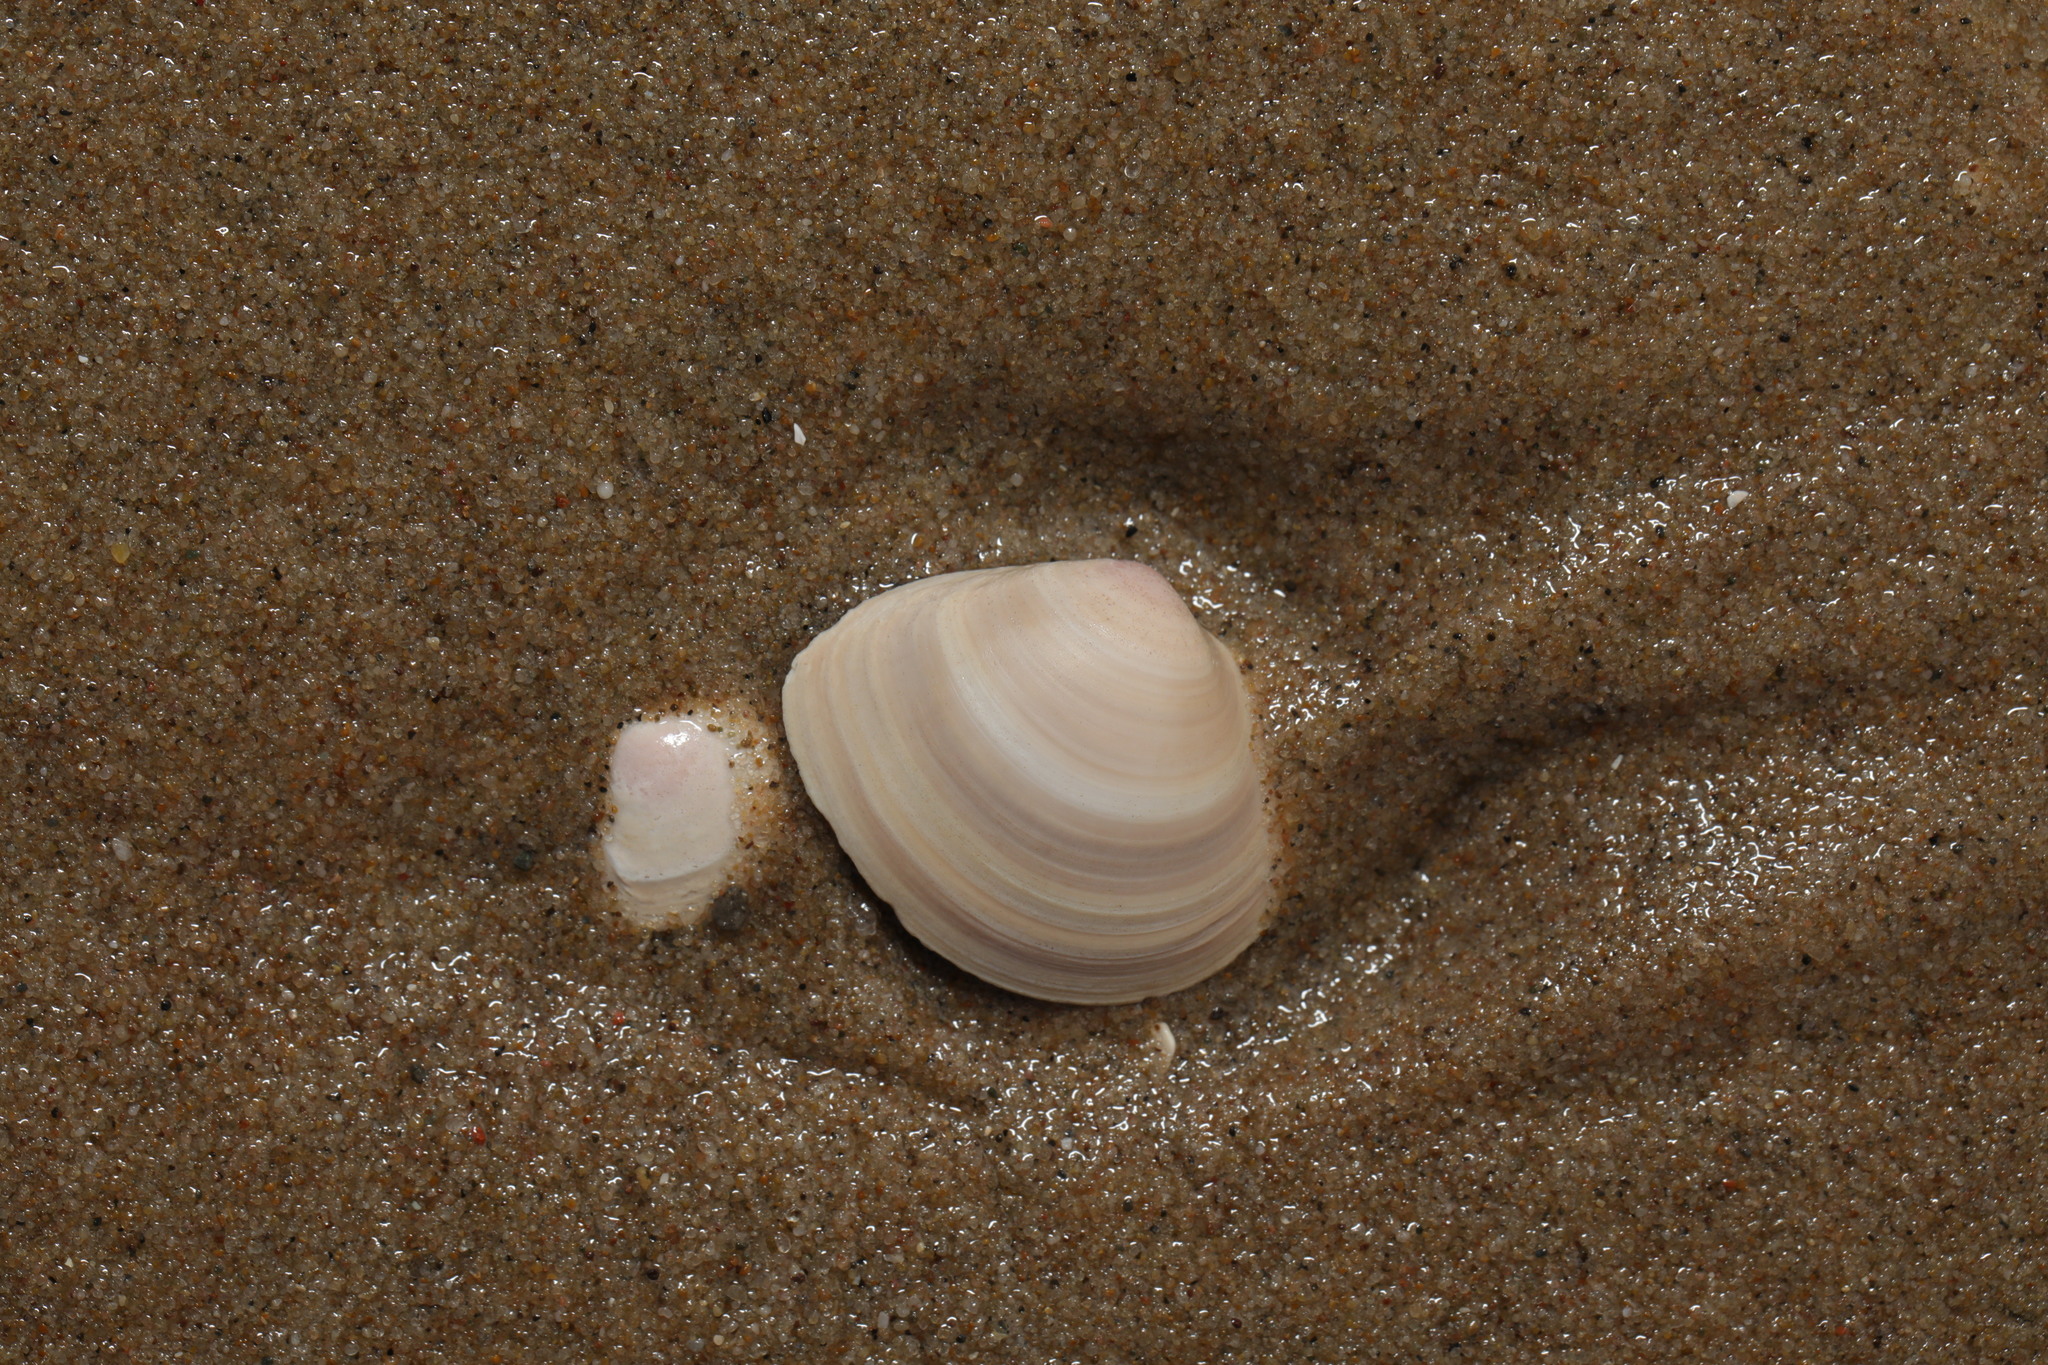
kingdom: Animalia
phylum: Mollusca
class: Bivalvia
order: Cardiida
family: Tellinidae
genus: Macoma
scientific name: Macoma balthica
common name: Baltic tellin
